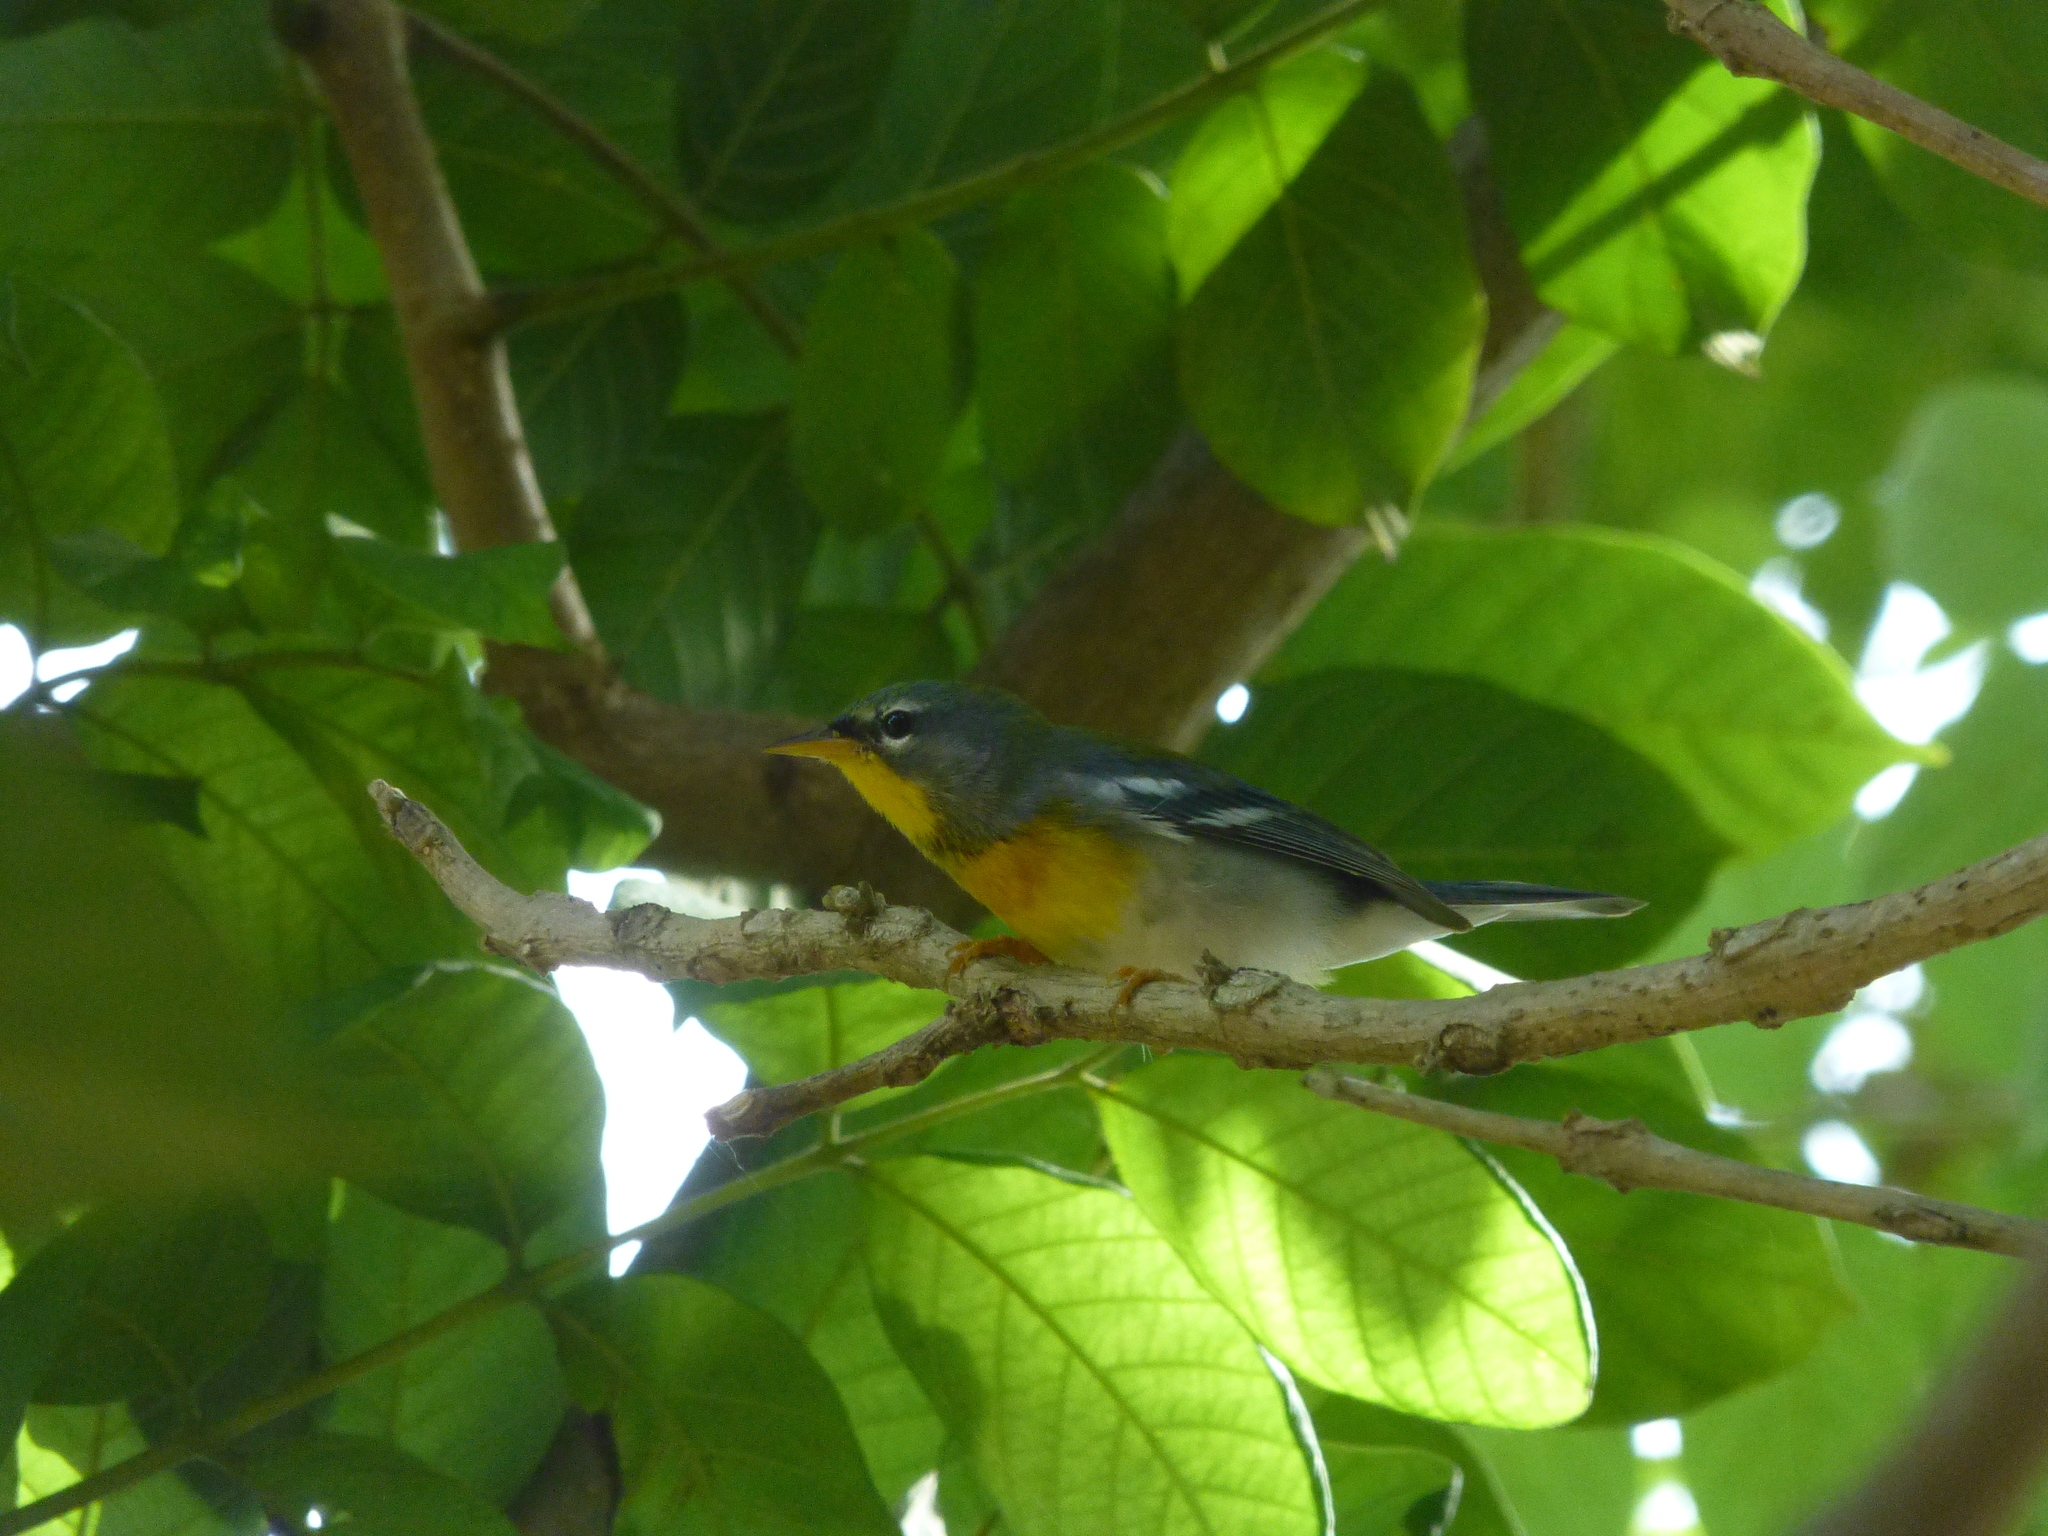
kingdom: Animalia
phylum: Chordata
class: Aves
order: Passeriformes
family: Parulidae
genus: Setophaga
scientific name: Setophaga americana
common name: Northern parula
